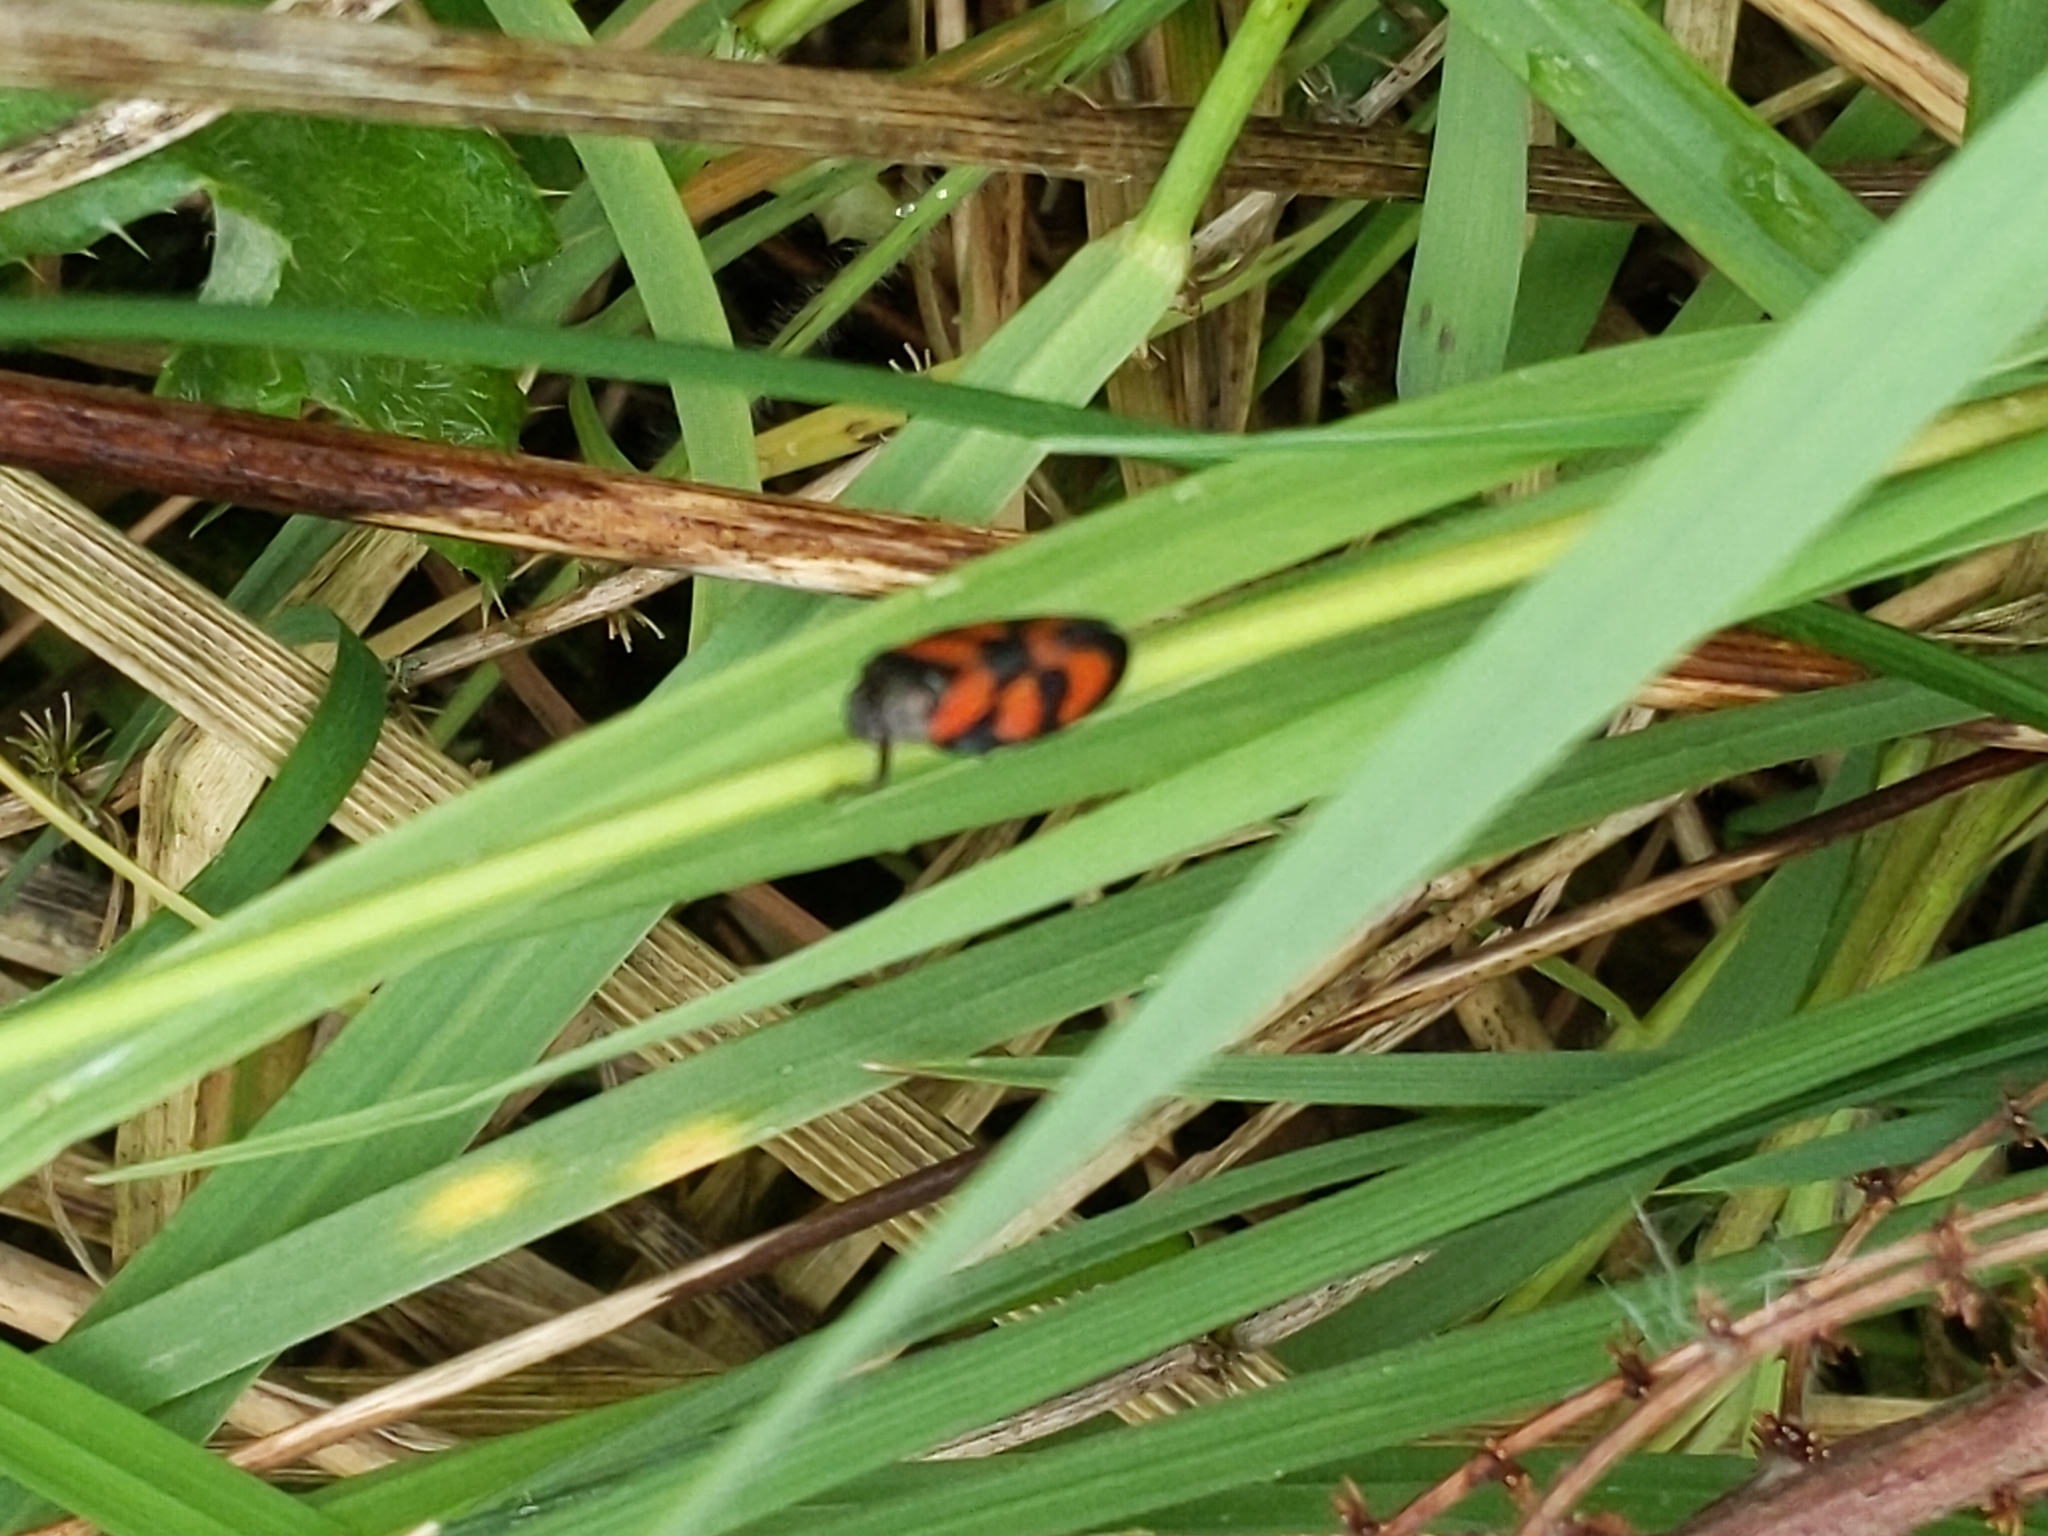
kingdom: Animalia
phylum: Arthropoda
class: Insecta
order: Hemiptera
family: Cercopidae
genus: Cercopis
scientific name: Cercopis vulnerata
